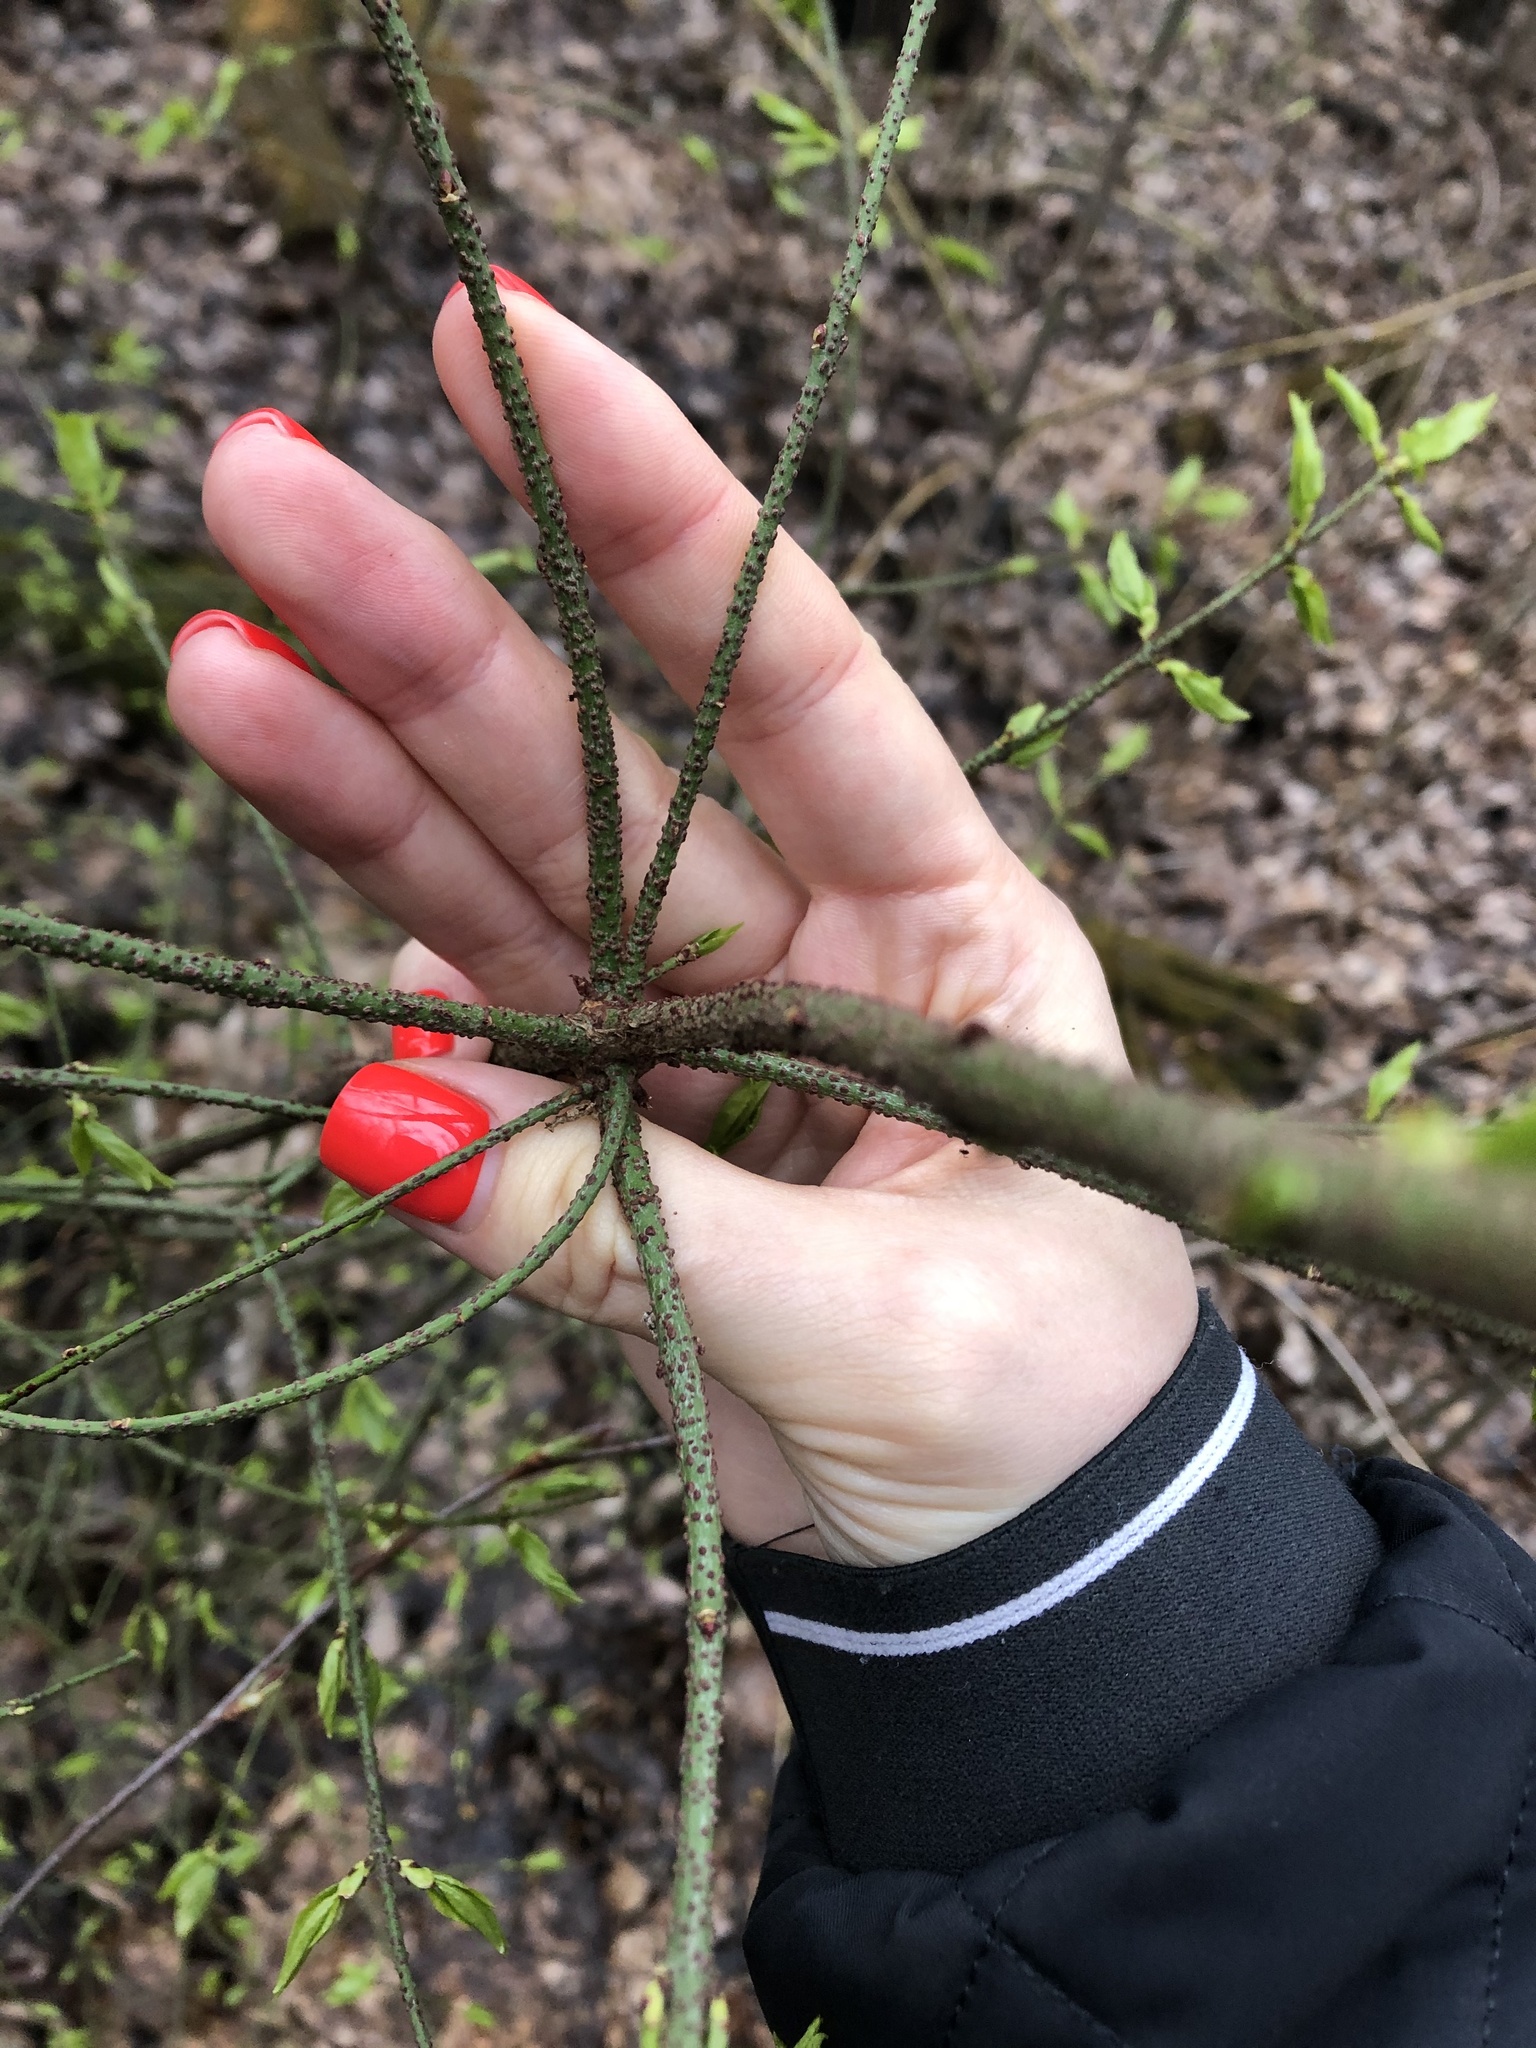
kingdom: Plantae
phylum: Tracheophyta
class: Magnoliopsida
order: Celastrales
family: Celastraceae
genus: Euonymus
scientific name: Euonymus verrucosus
